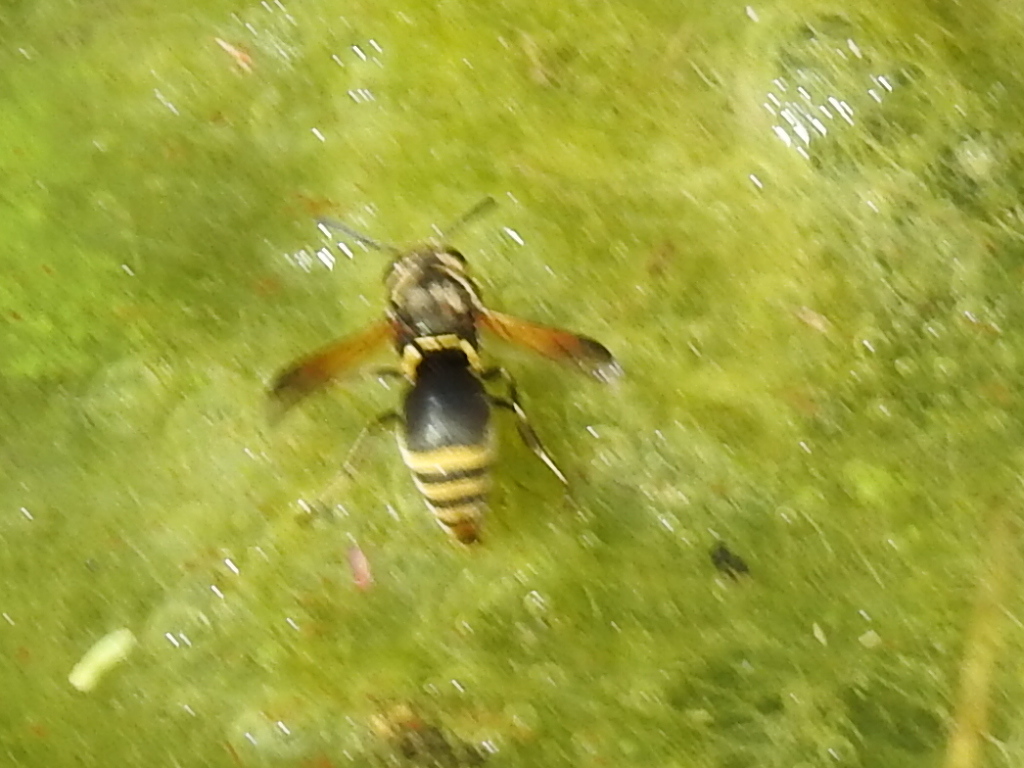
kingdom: Animalia
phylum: Arthropoda
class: Insecta
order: Hymenoptera
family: Eumenidae
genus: Pachodynerus
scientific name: Pachodynerus
